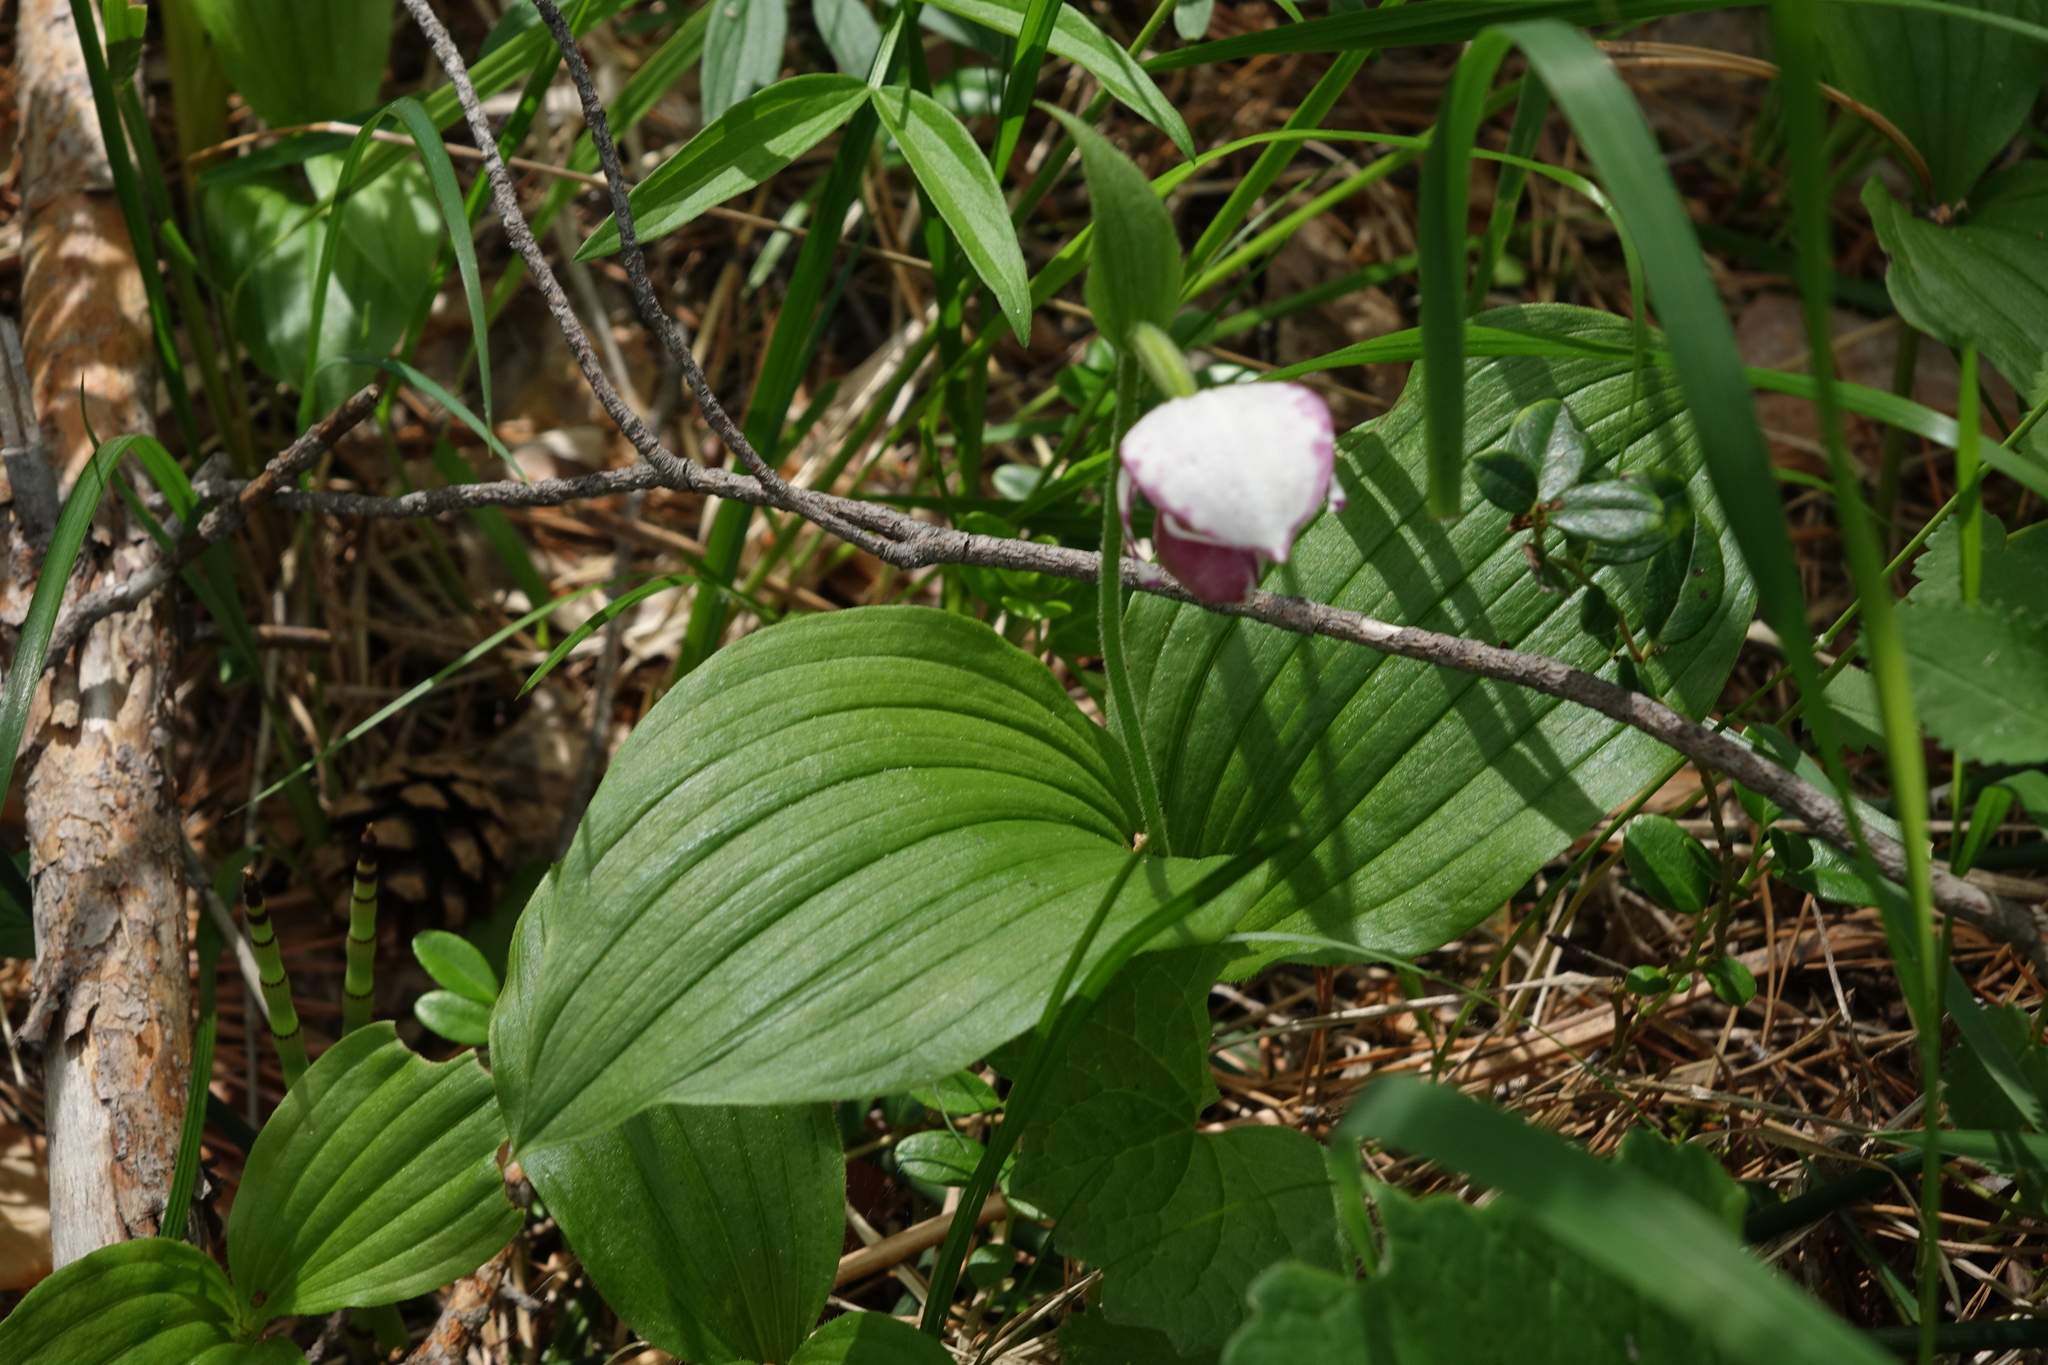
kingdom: Plantae
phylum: Tracheophyta
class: Liliopsida
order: Asparagales
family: Orchidaceae
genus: Cypripedium
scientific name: Cypripedium guttatum
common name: Pink lady slipper
